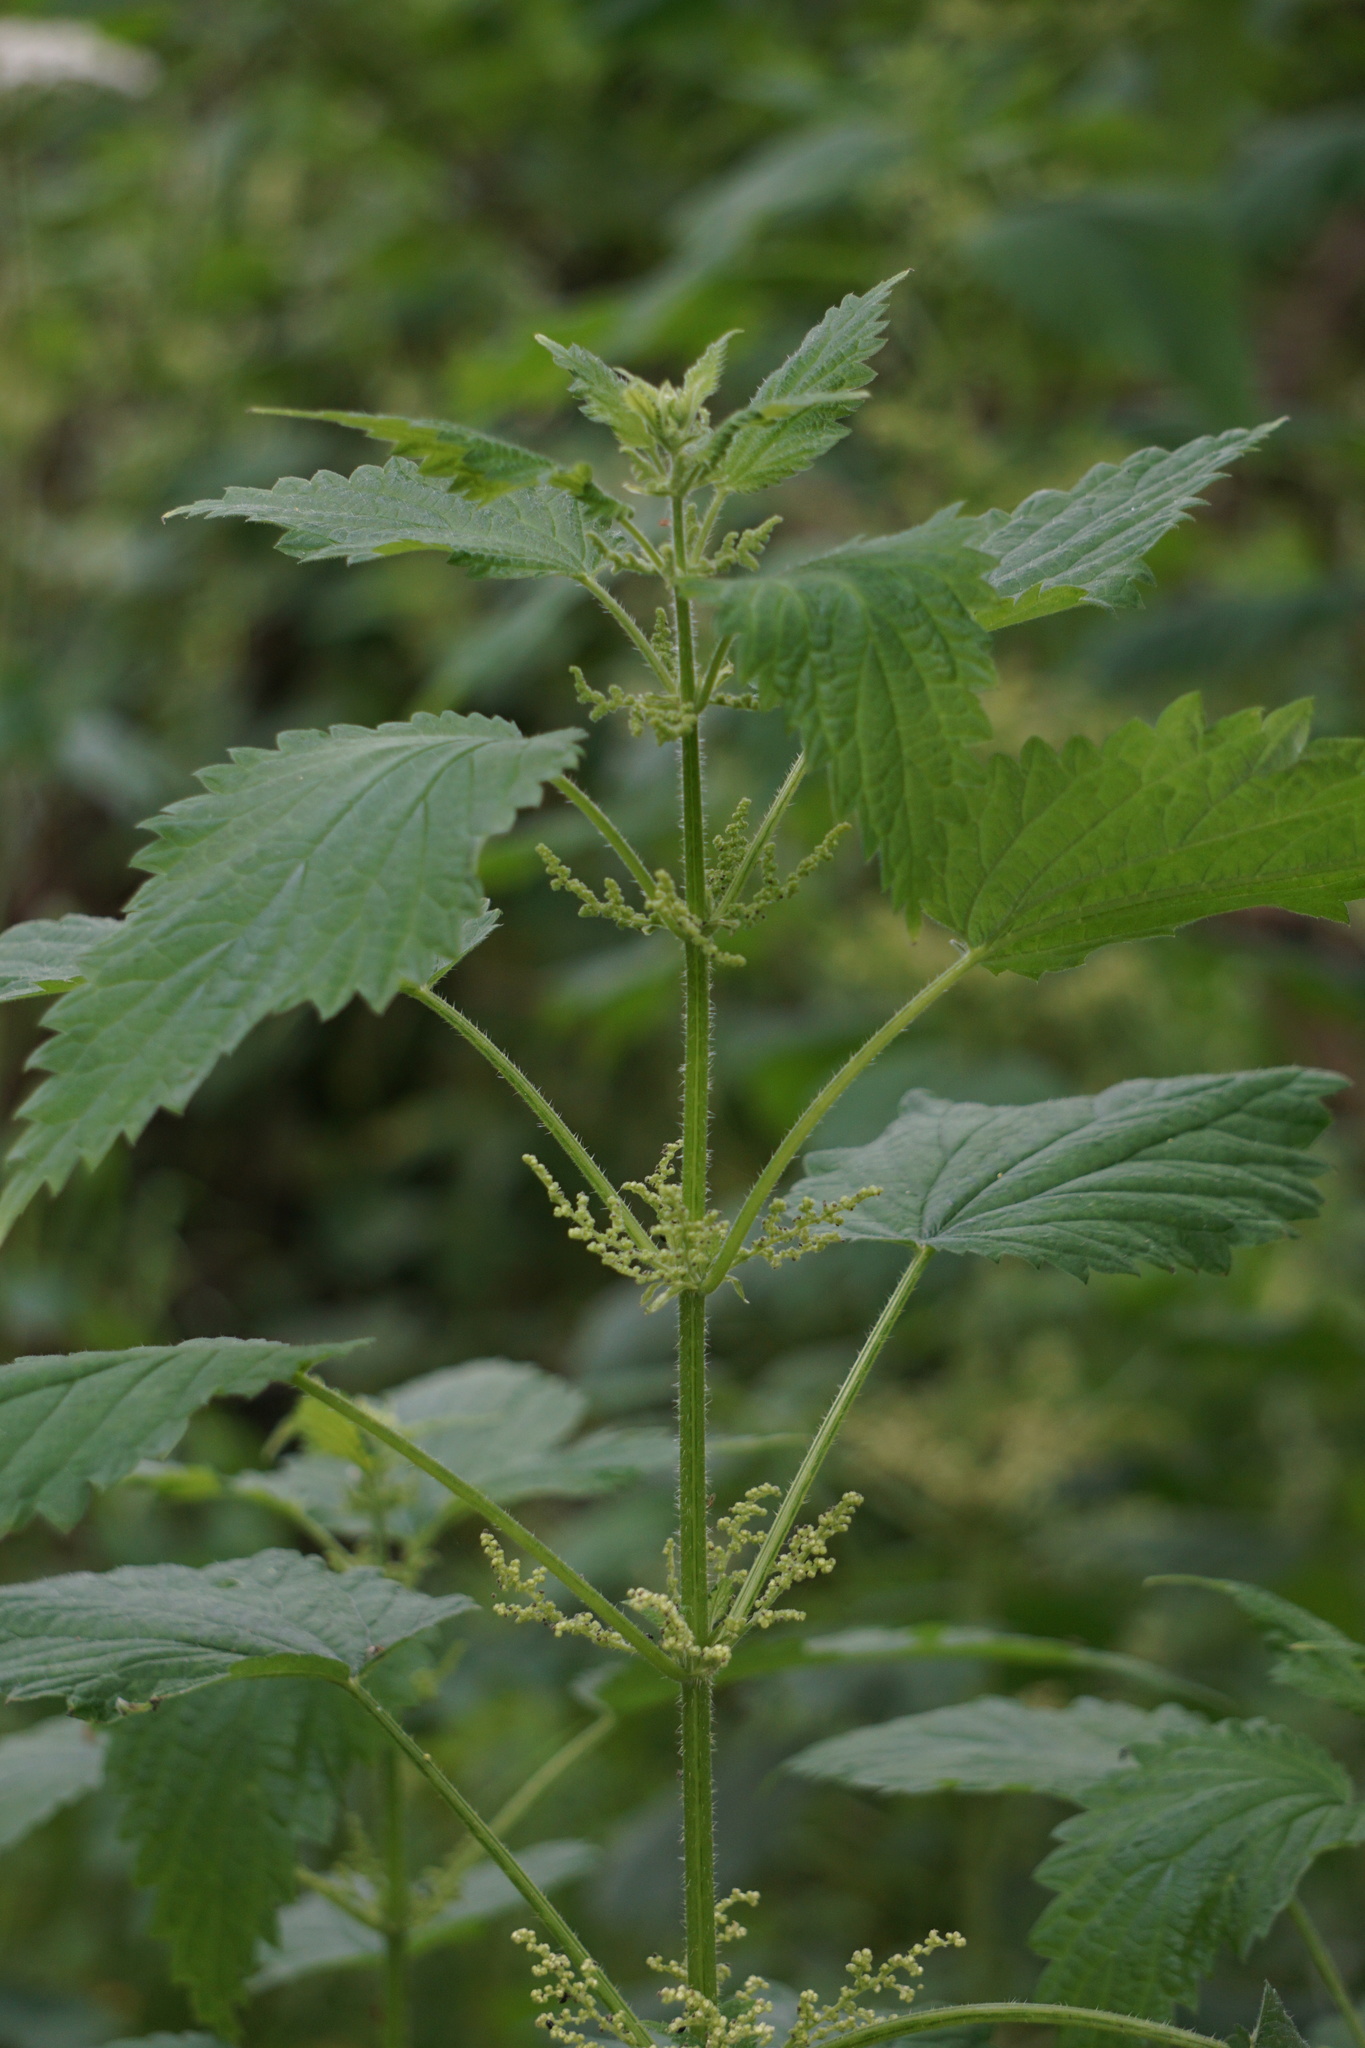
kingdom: Plantae
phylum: Tracheophyta
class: Magnoliopsida
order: Rosales
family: Urticaceae
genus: Urtica
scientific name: Urtica dioica
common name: Common nettle
